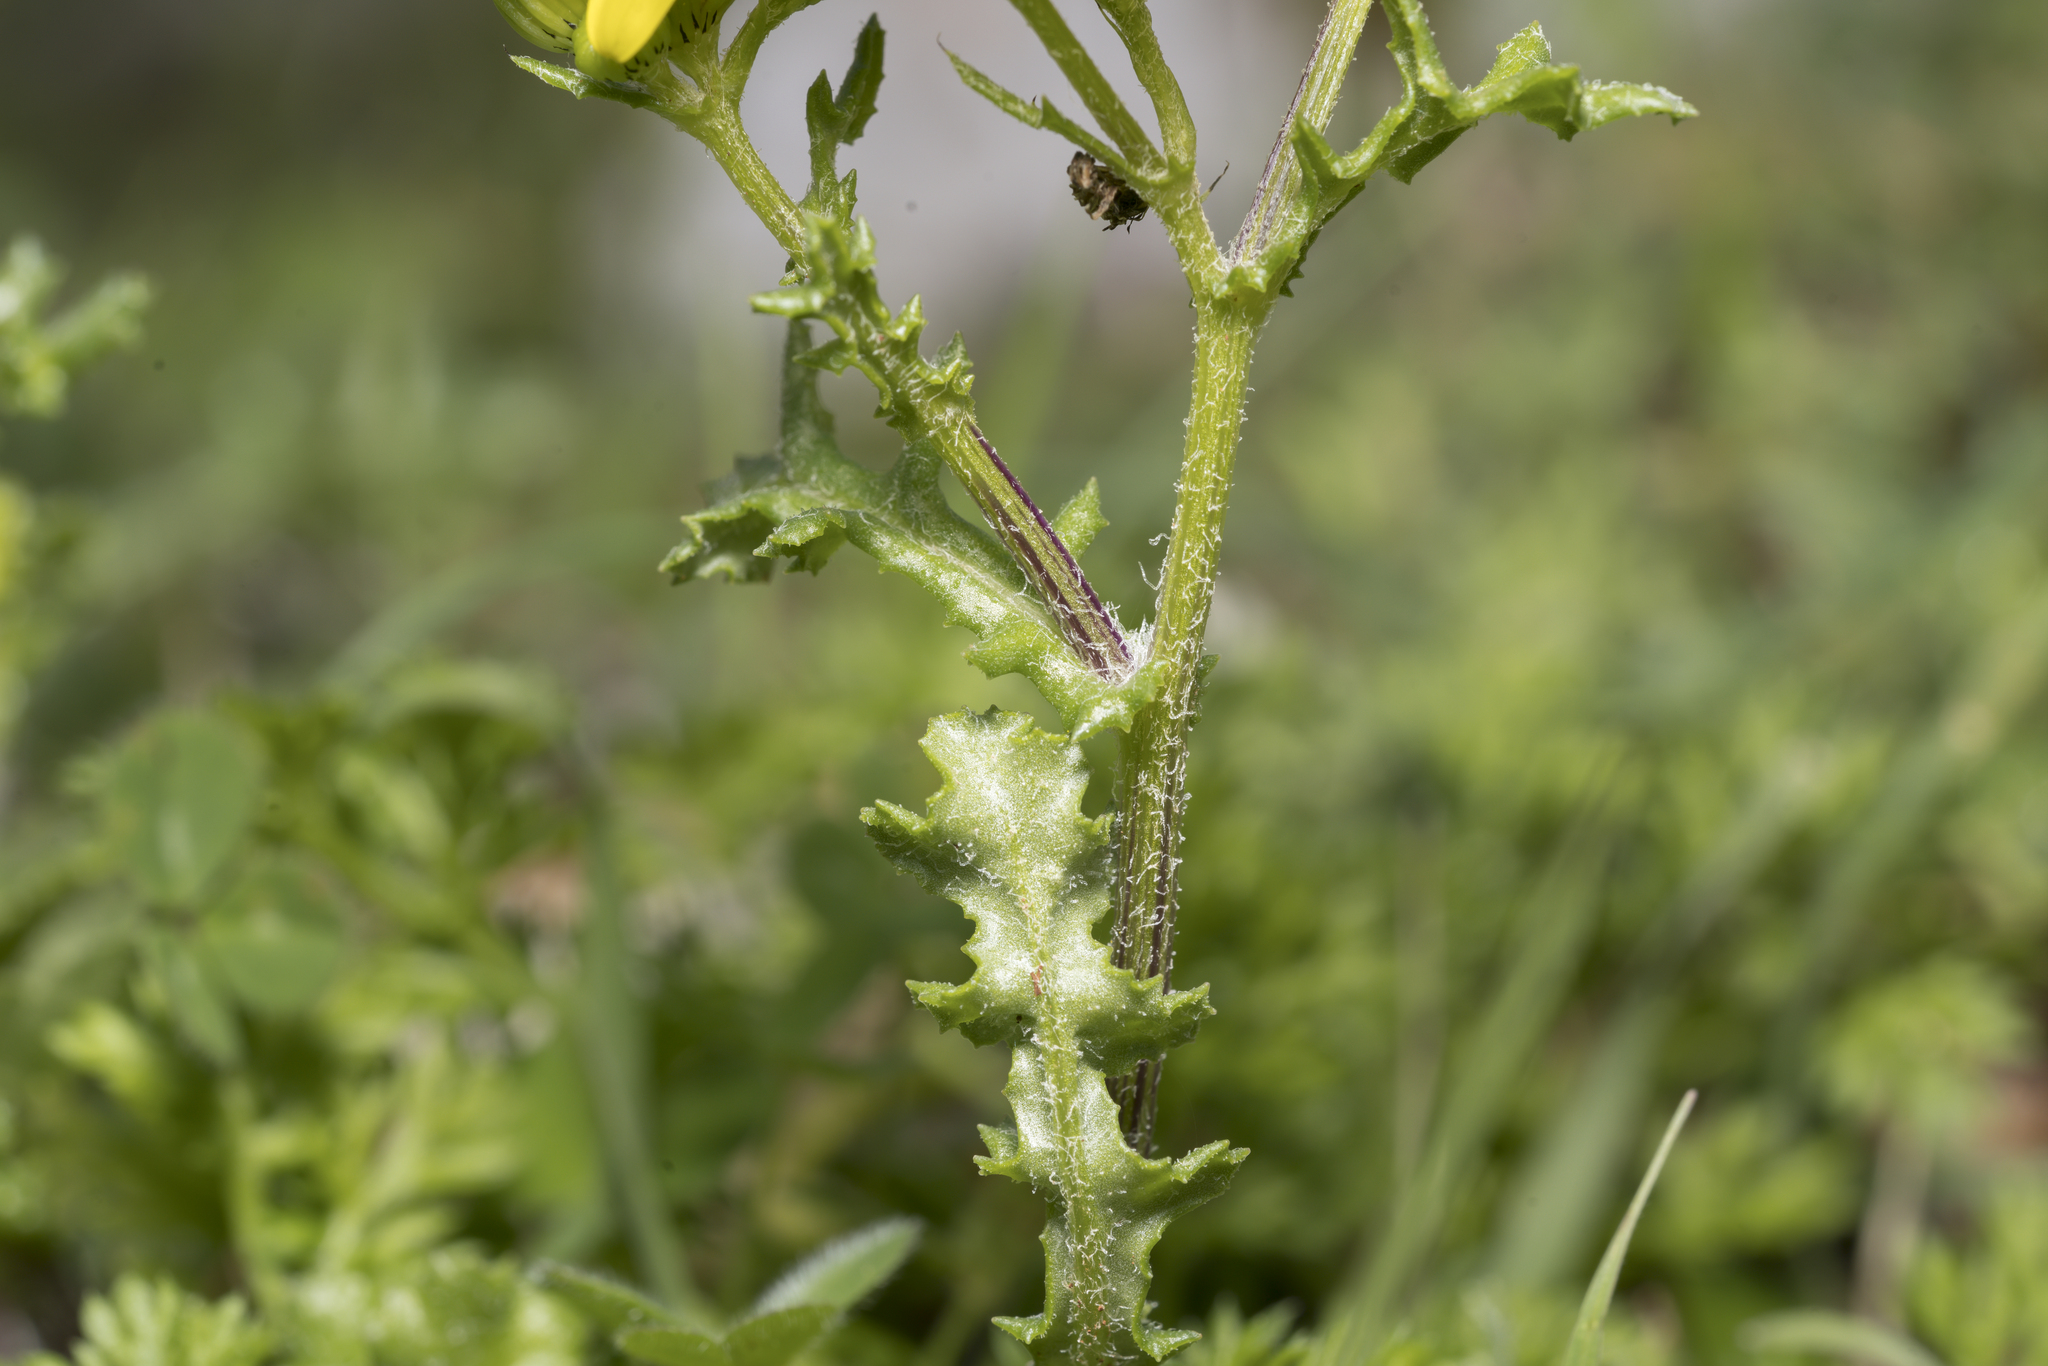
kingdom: Plantae
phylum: Tracheophyta
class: Magnoliopsida
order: Asterales
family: Asteraceae
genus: Senecio
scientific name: Senecio vernalis
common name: Eastern groundsel
